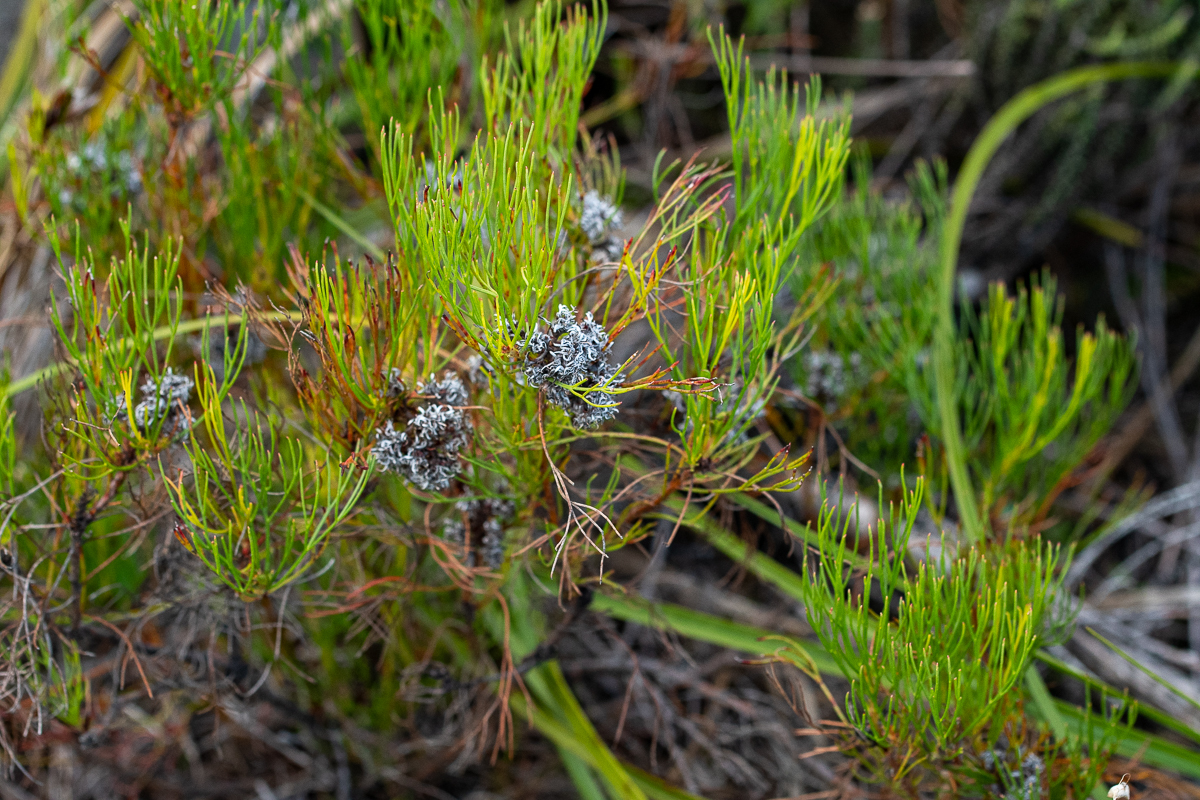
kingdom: Plantae
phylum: Tracheophyta
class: Magnoliopsida
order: Proteales
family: Proteaceae
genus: Serruria
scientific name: Serruria rubricaulis
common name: Red-stem spiderhead
